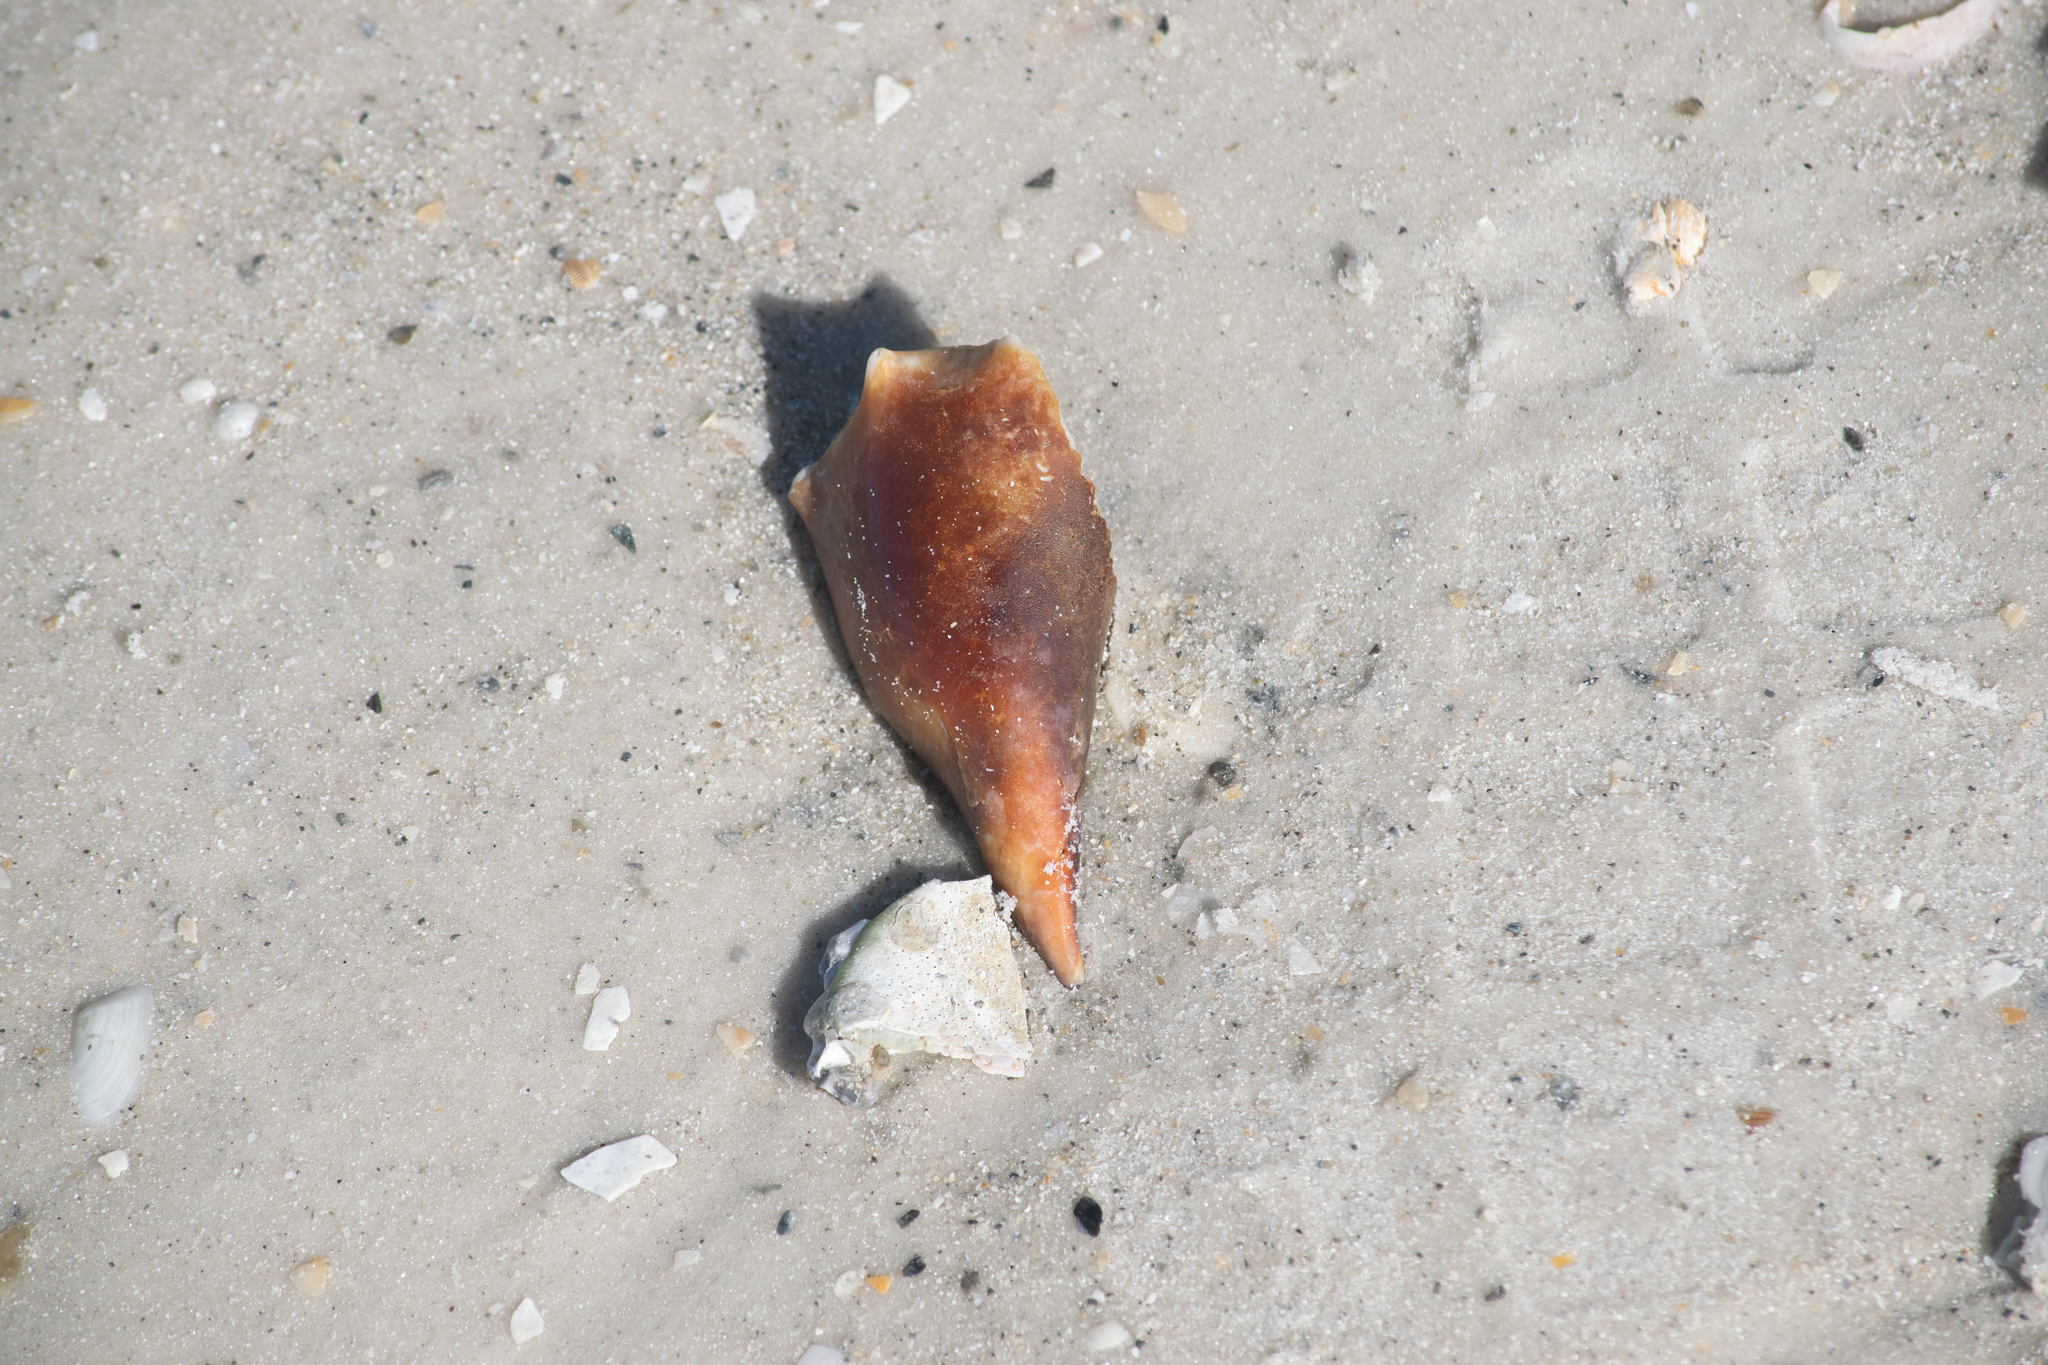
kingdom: Animalia
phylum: Mollusca
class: Gastropoda
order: Littorinimorpha
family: Strombidae
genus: Strombus
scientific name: Strombus alatus
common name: Florida fighting conch
